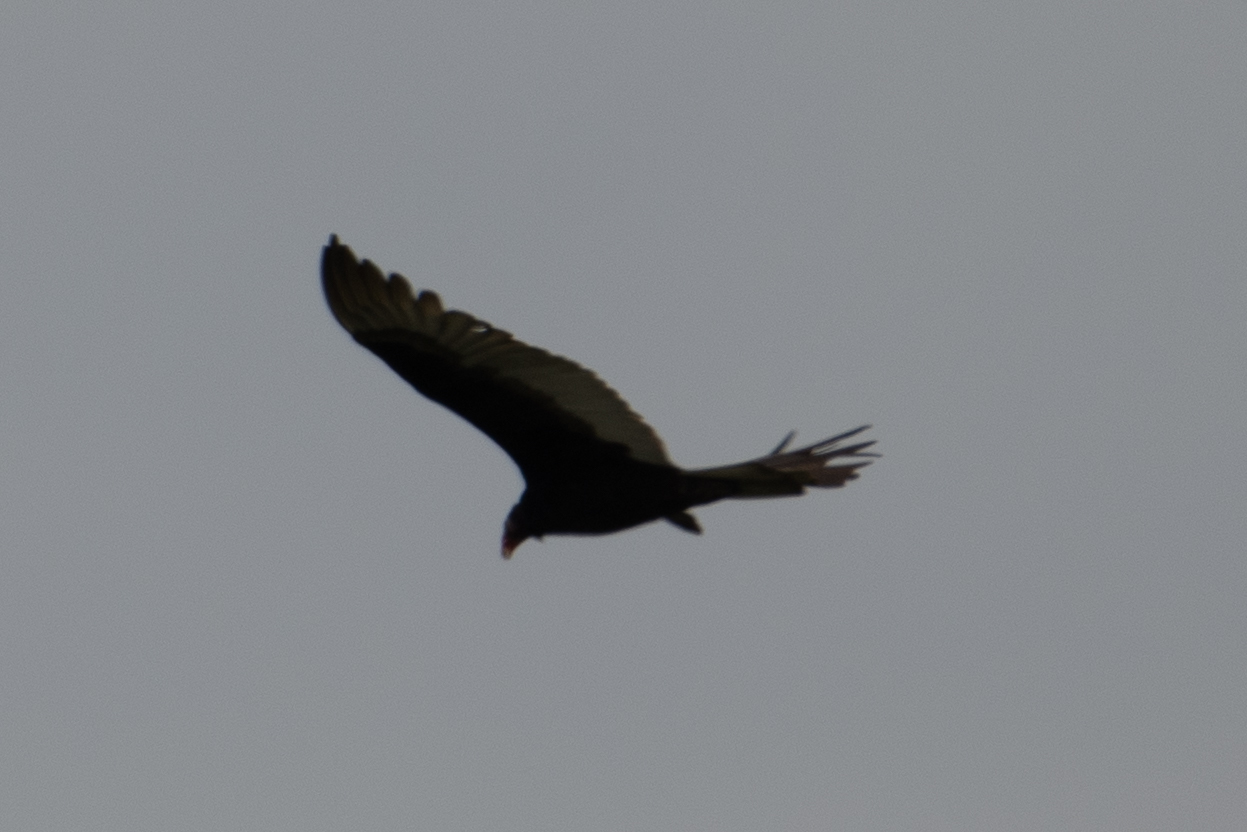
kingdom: Animalia
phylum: Chordata
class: Aves
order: Accipitriformes
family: Cathartidae
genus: Cathartes
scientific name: Cathartes aura
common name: Turkey vulture
